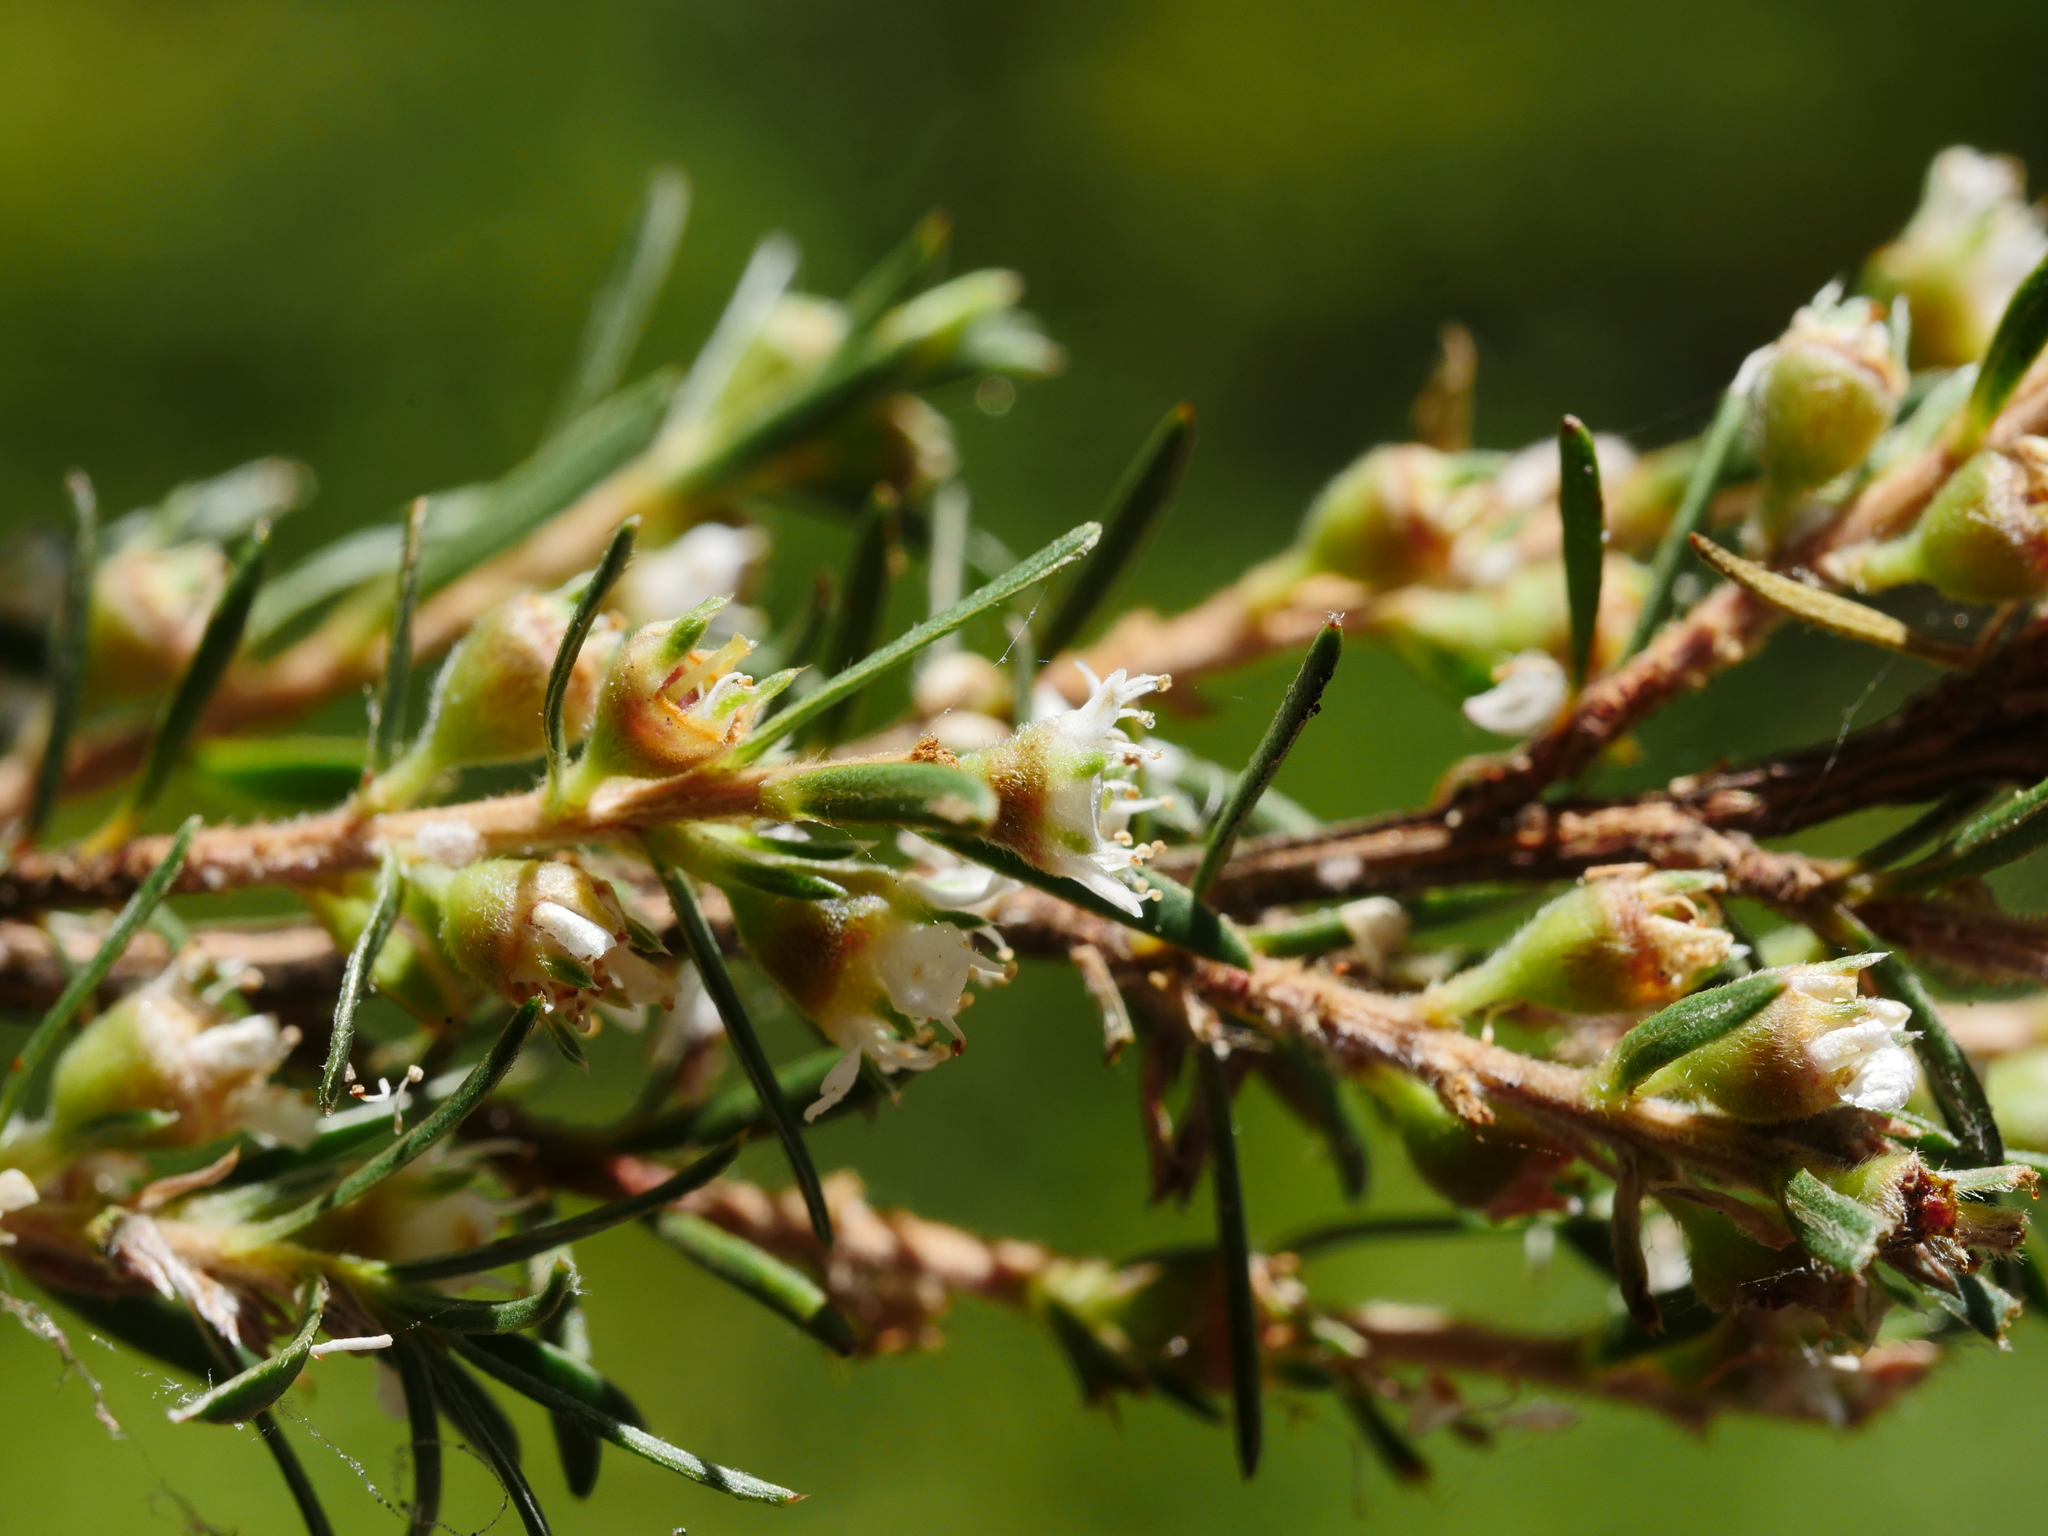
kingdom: Plantae
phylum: Tracheophyta
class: Magnoliopsida
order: Myrtales
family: Myrtaceae
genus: Kunzea
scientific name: Kunzea linearis
